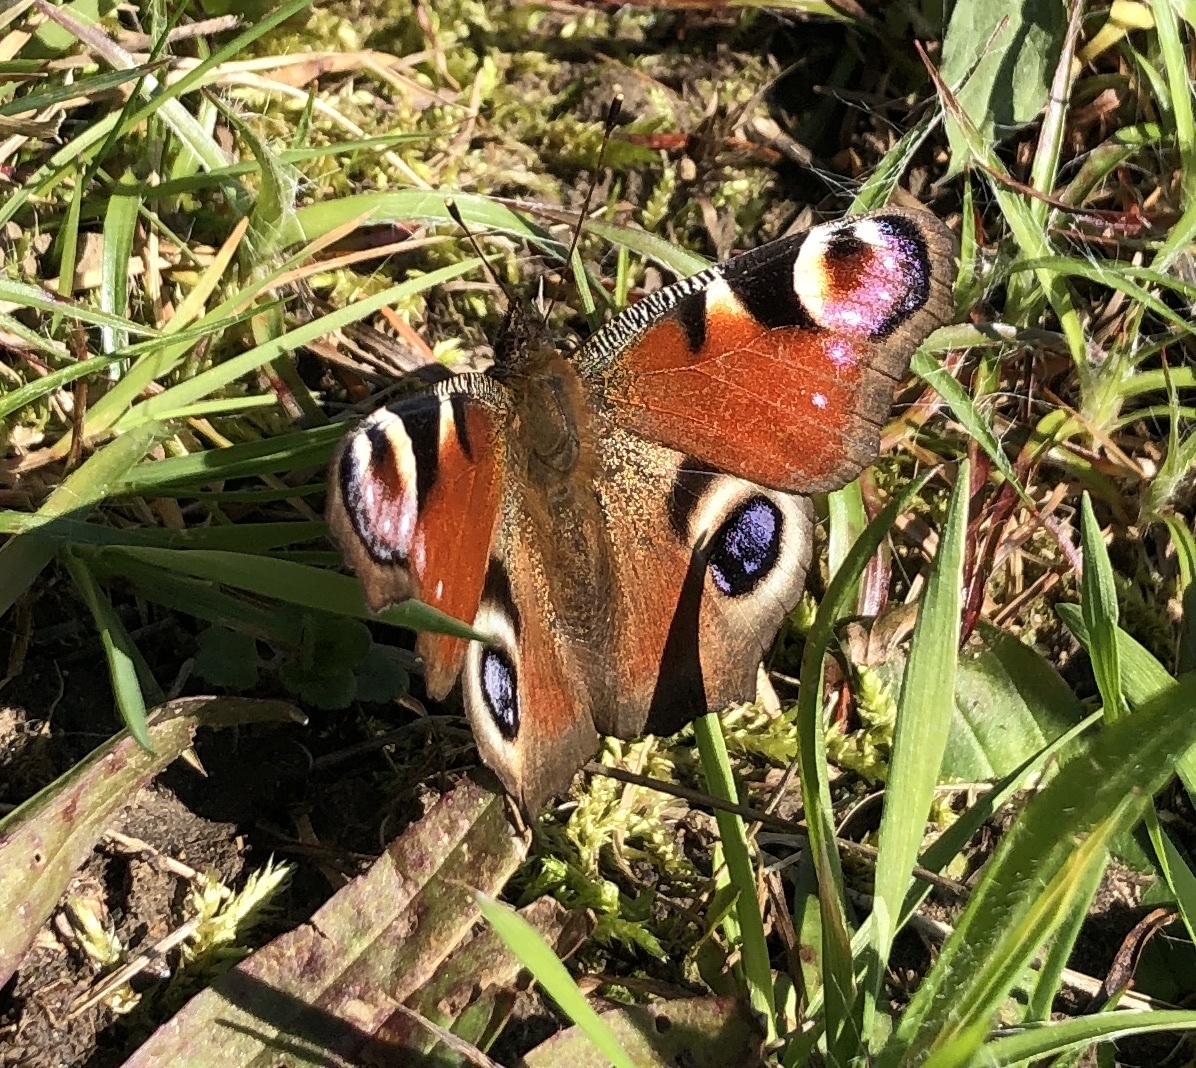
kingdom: Animalia
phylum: Arthropoda
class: Insecta
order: Lepidoptera
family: Nymphalidae
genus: Aglais
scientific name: Aglais io
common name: Peacock
